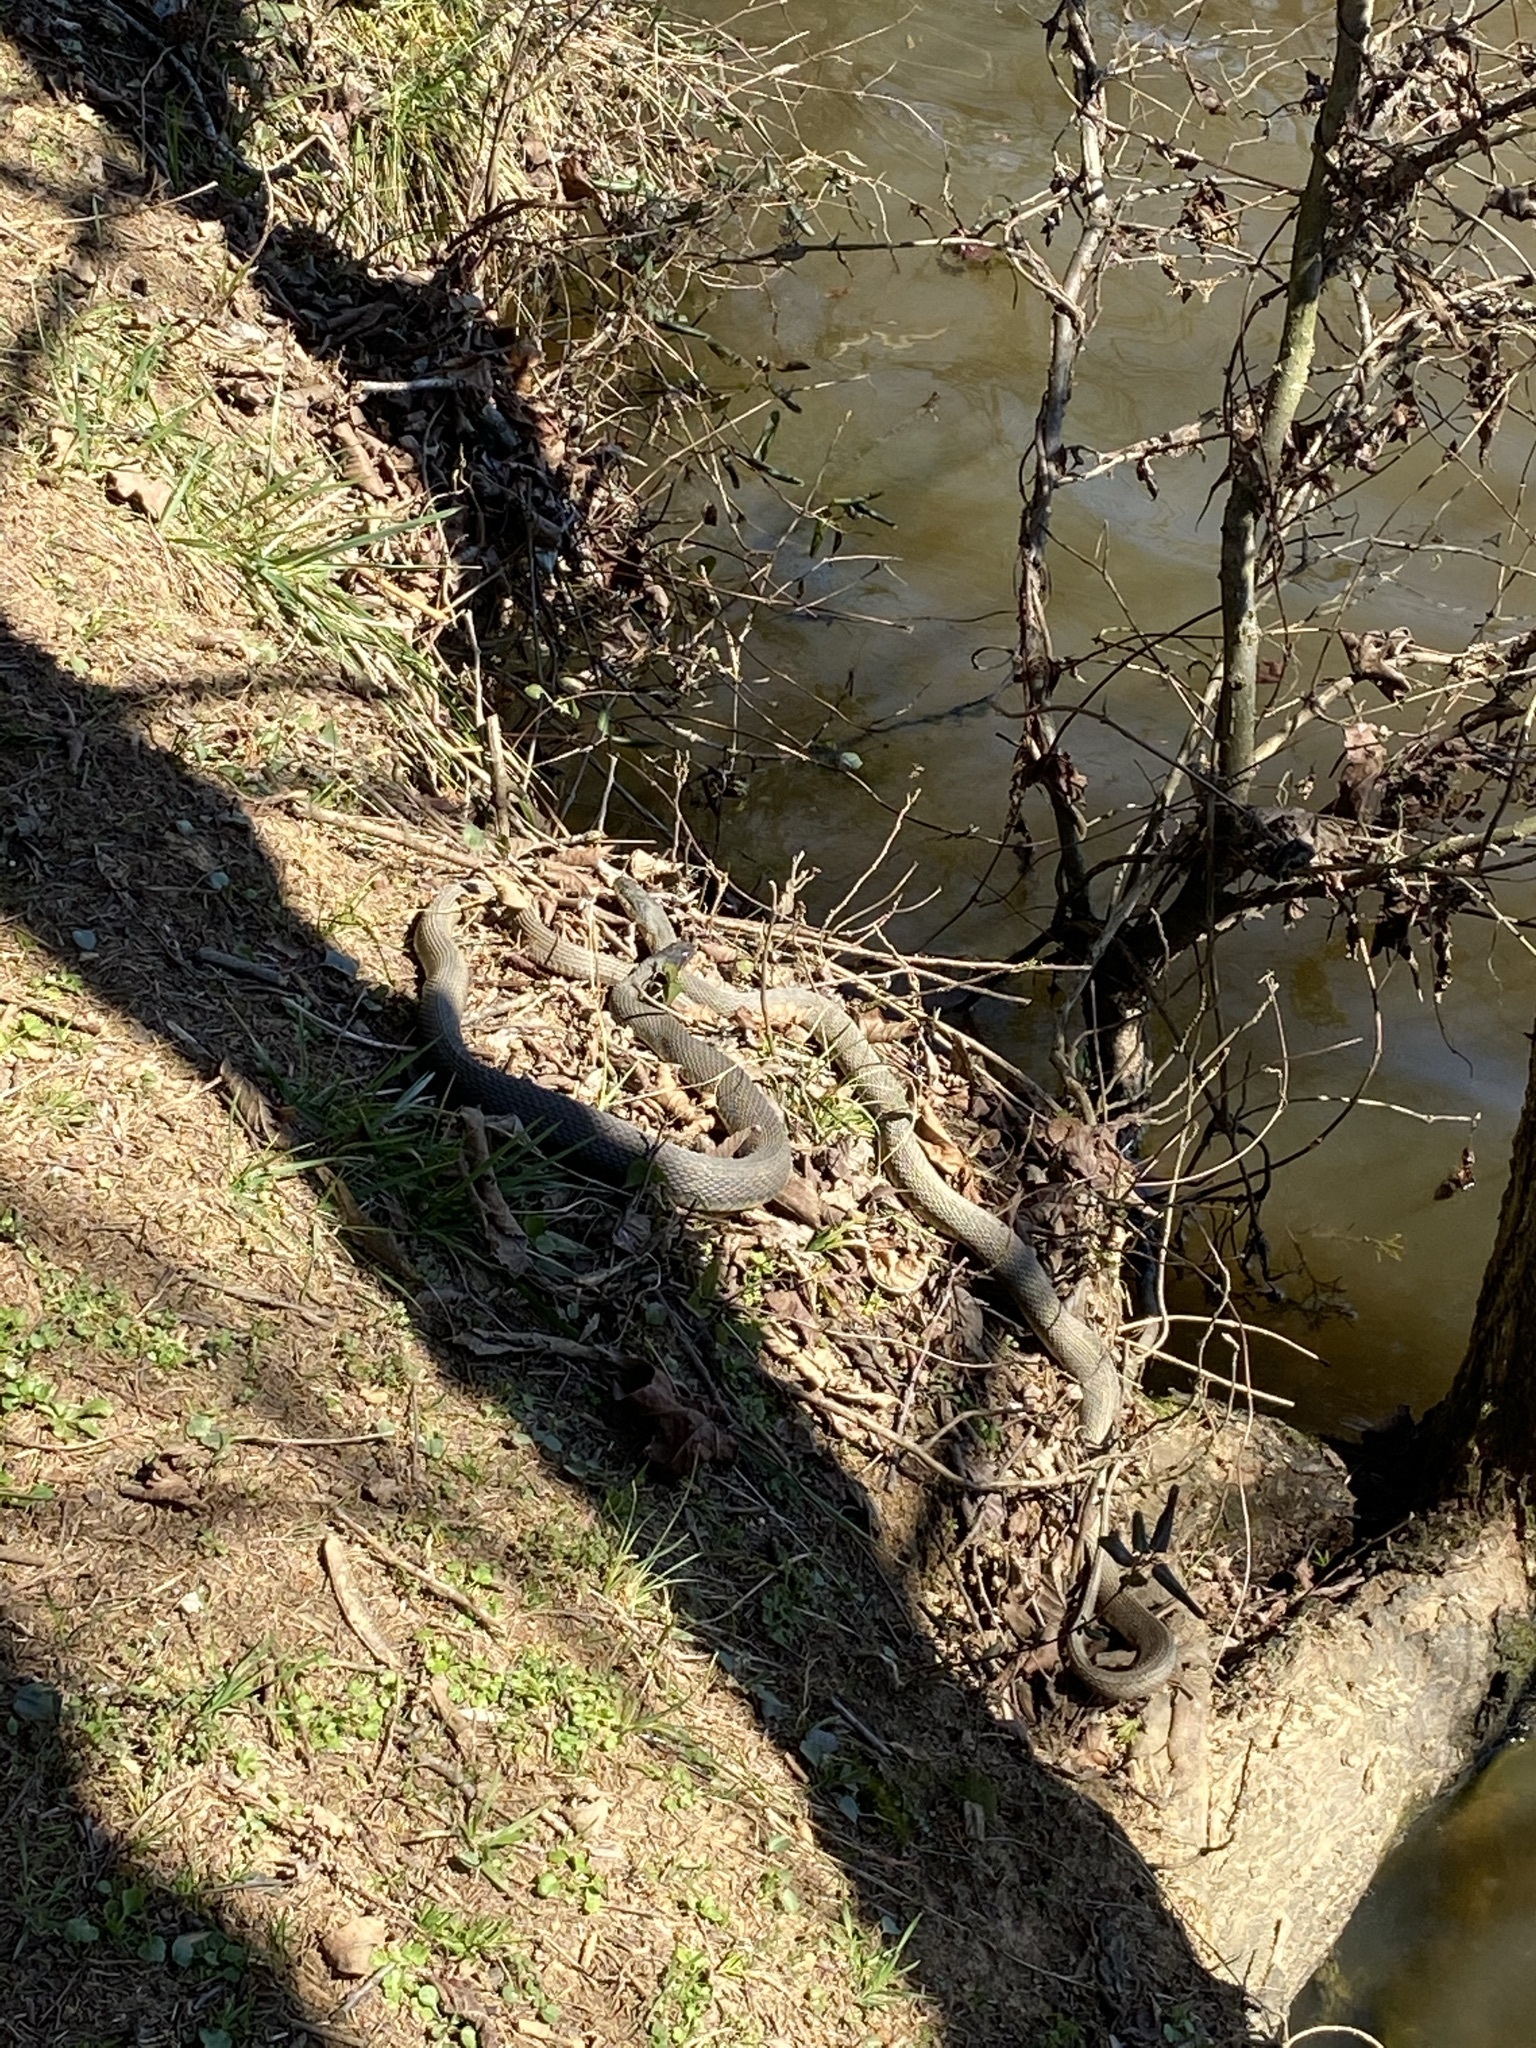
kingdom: Animalia
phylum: Chordata
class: Squamata
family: Colubridae
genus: Nerodia
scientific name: Nerodia erythrogaster
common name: Plainbelly water snake
